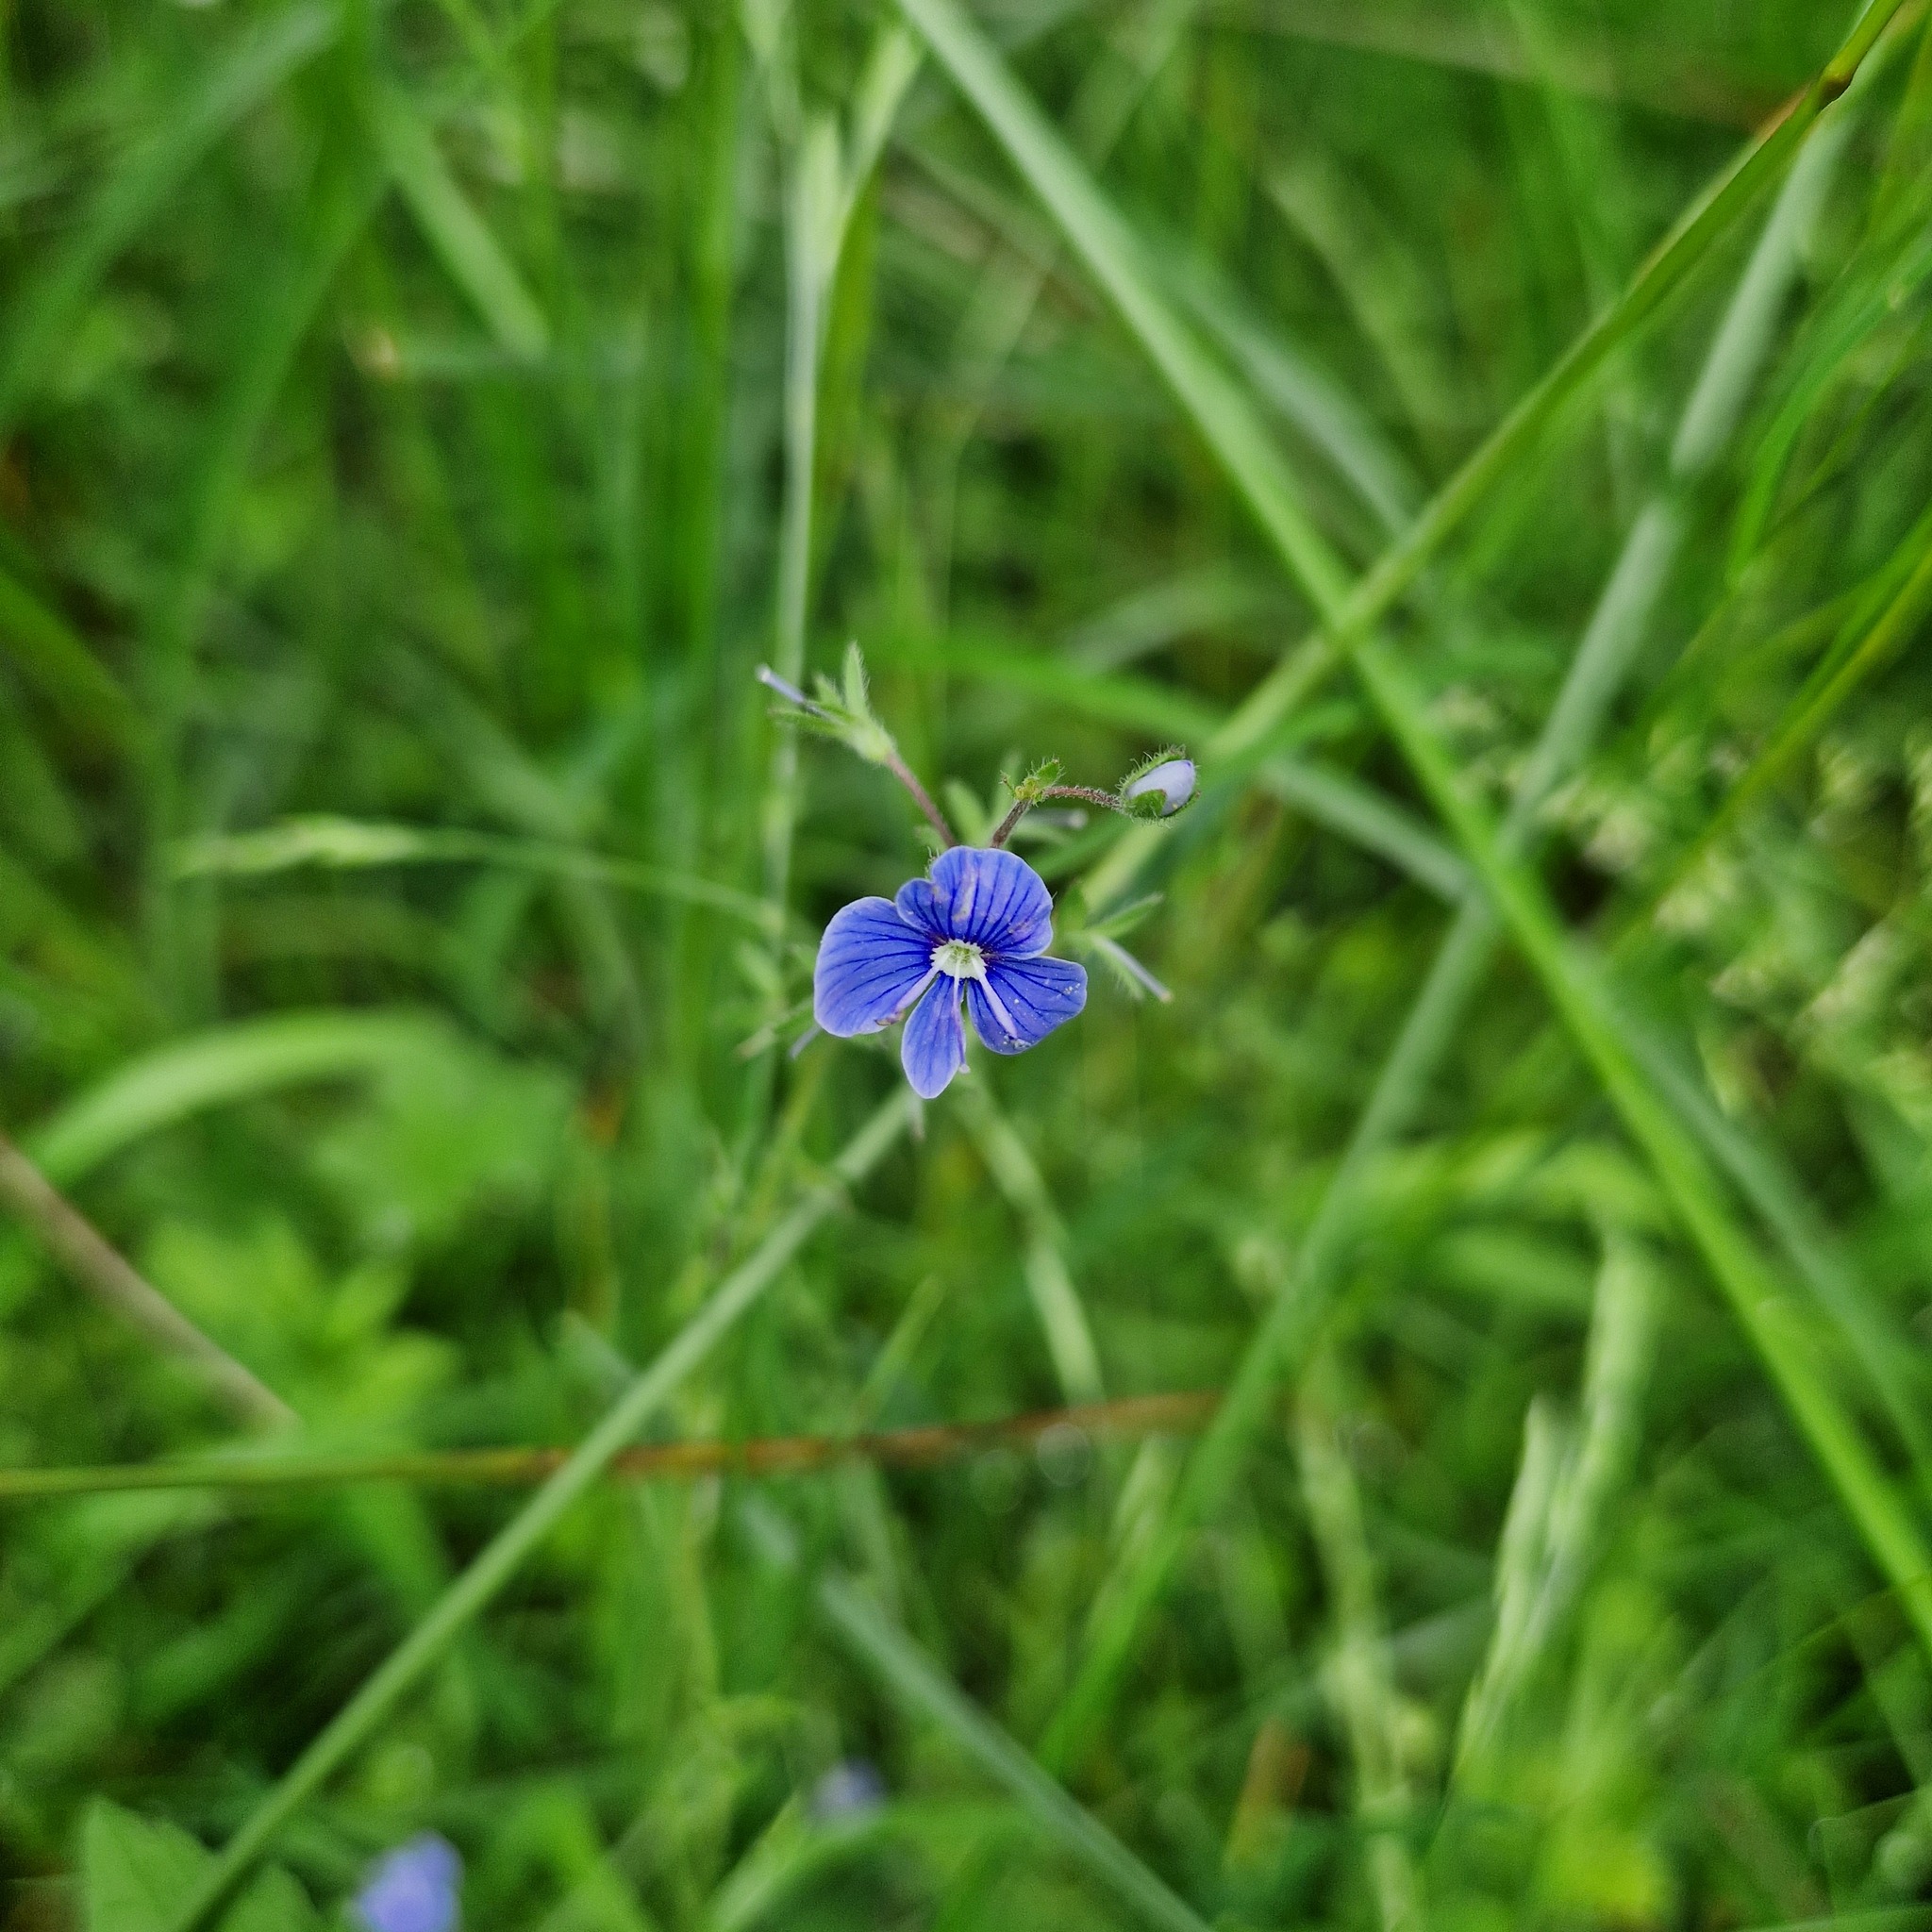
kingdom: Plantae
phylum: Tracheophyta
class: Magnoliopsida
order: Lamiales
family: Plantaginaceae
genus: Veronica
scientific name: Veronica chamaedrys
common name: Germander speedwell
